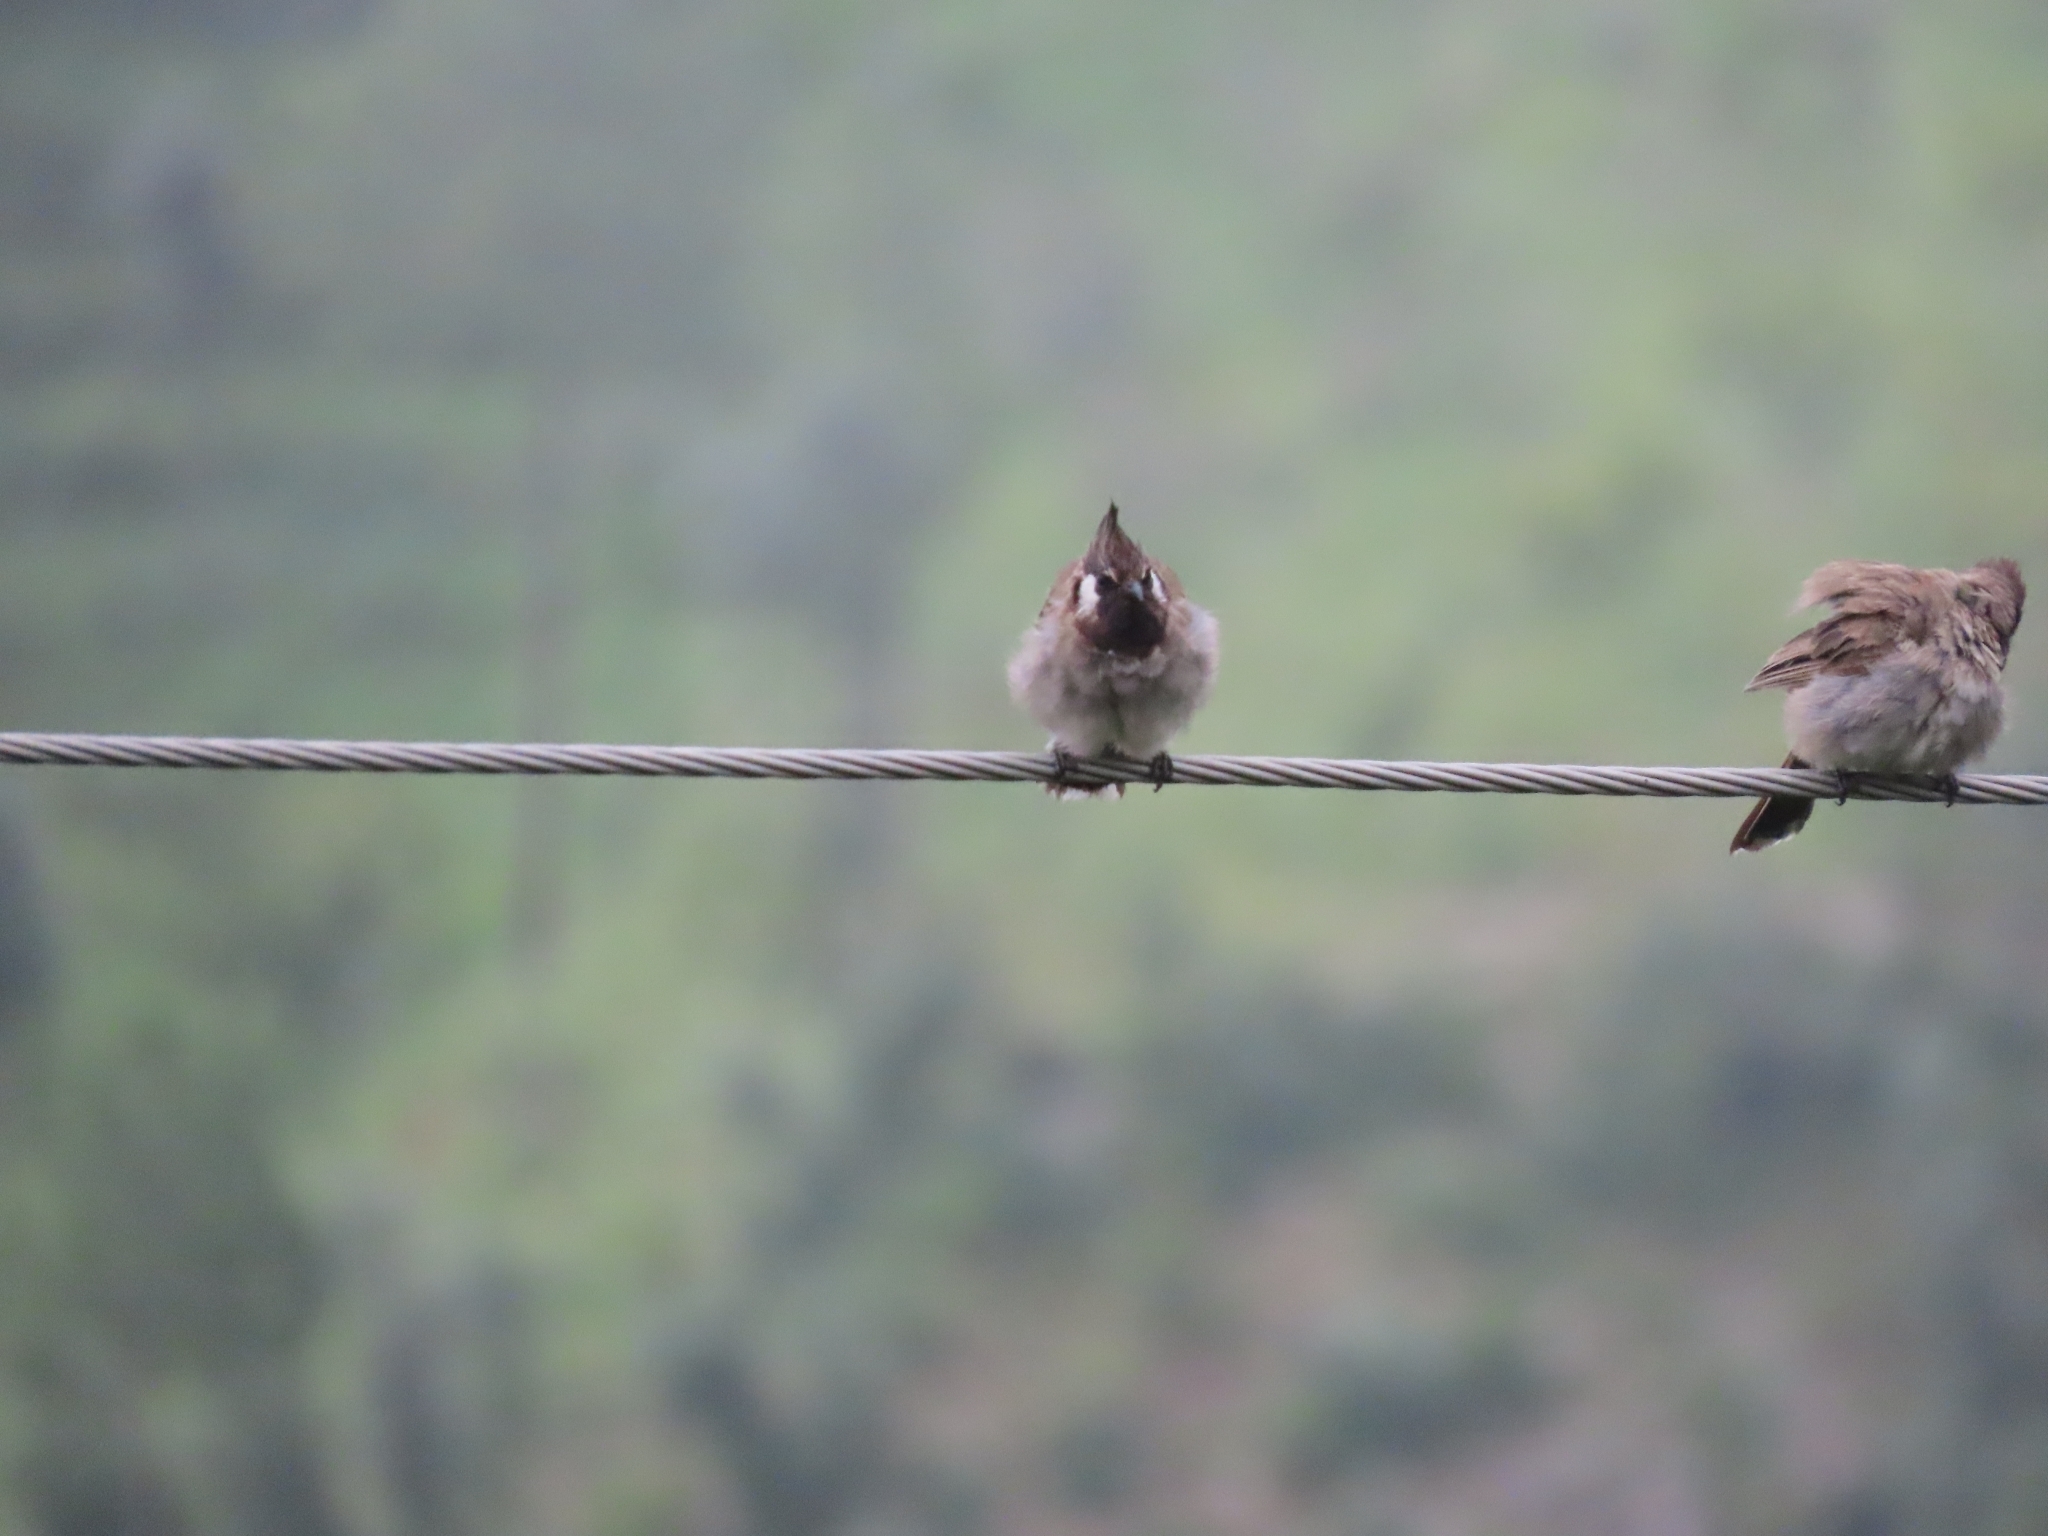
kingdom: Animalia
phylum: Chordata
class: Aves
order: Passeriformes
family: Pycnonotidae
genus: Pycnonotus
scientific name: Pycnonotus leucogenys
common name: Himalayan bulbul
